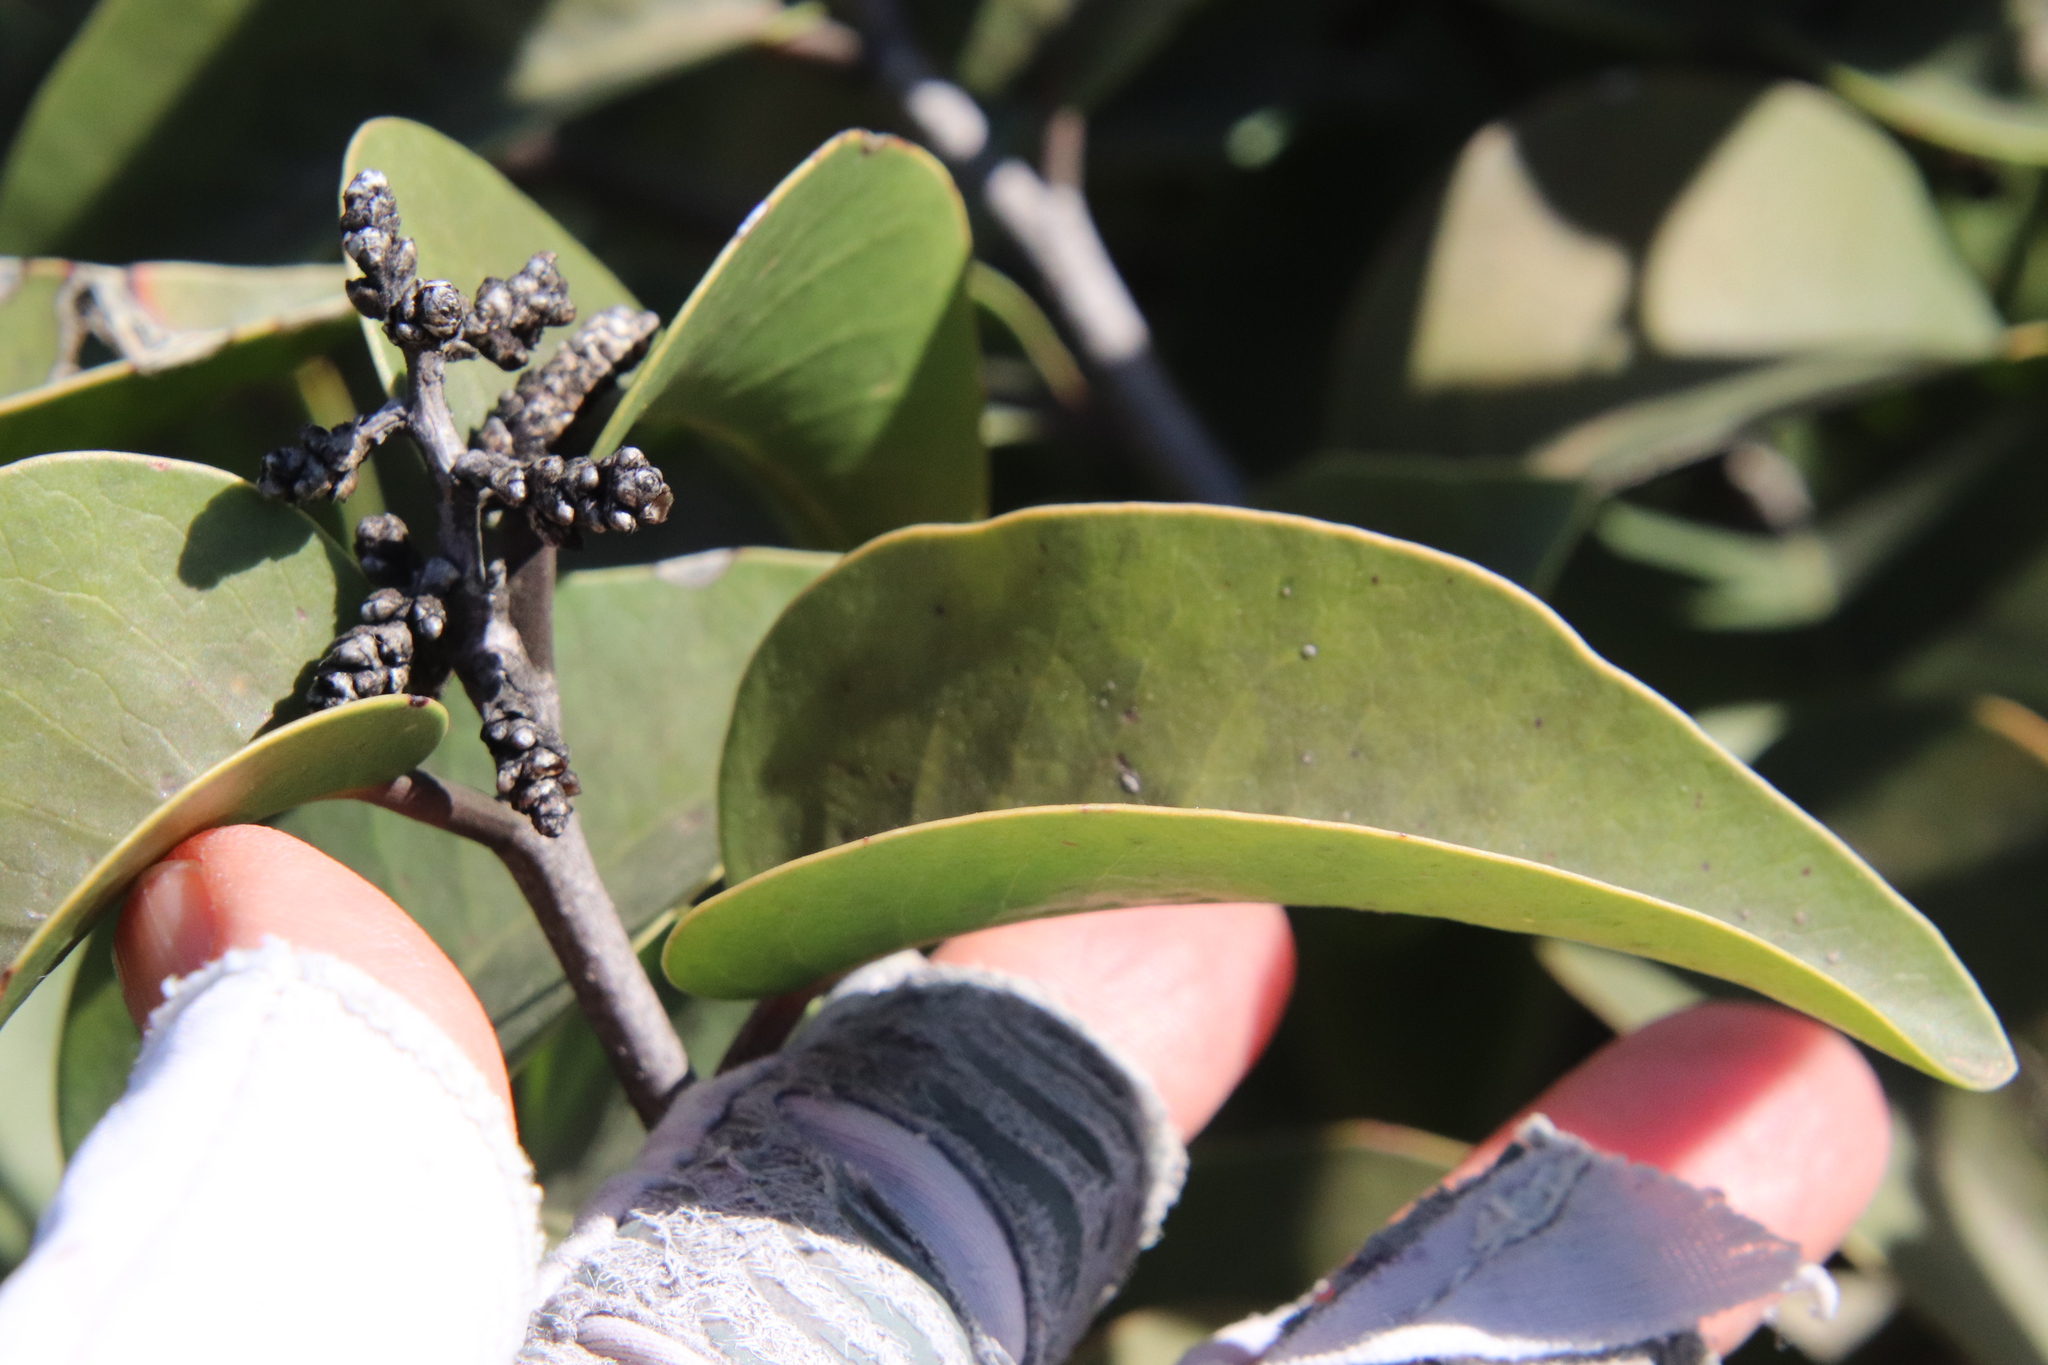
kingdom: Plantae
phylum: Tracheophyta
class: Magnoliopsida
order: Sapindales
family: Anacardiaceae
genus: Rhus
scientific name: Rhus ovata
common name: Sugar sumac
